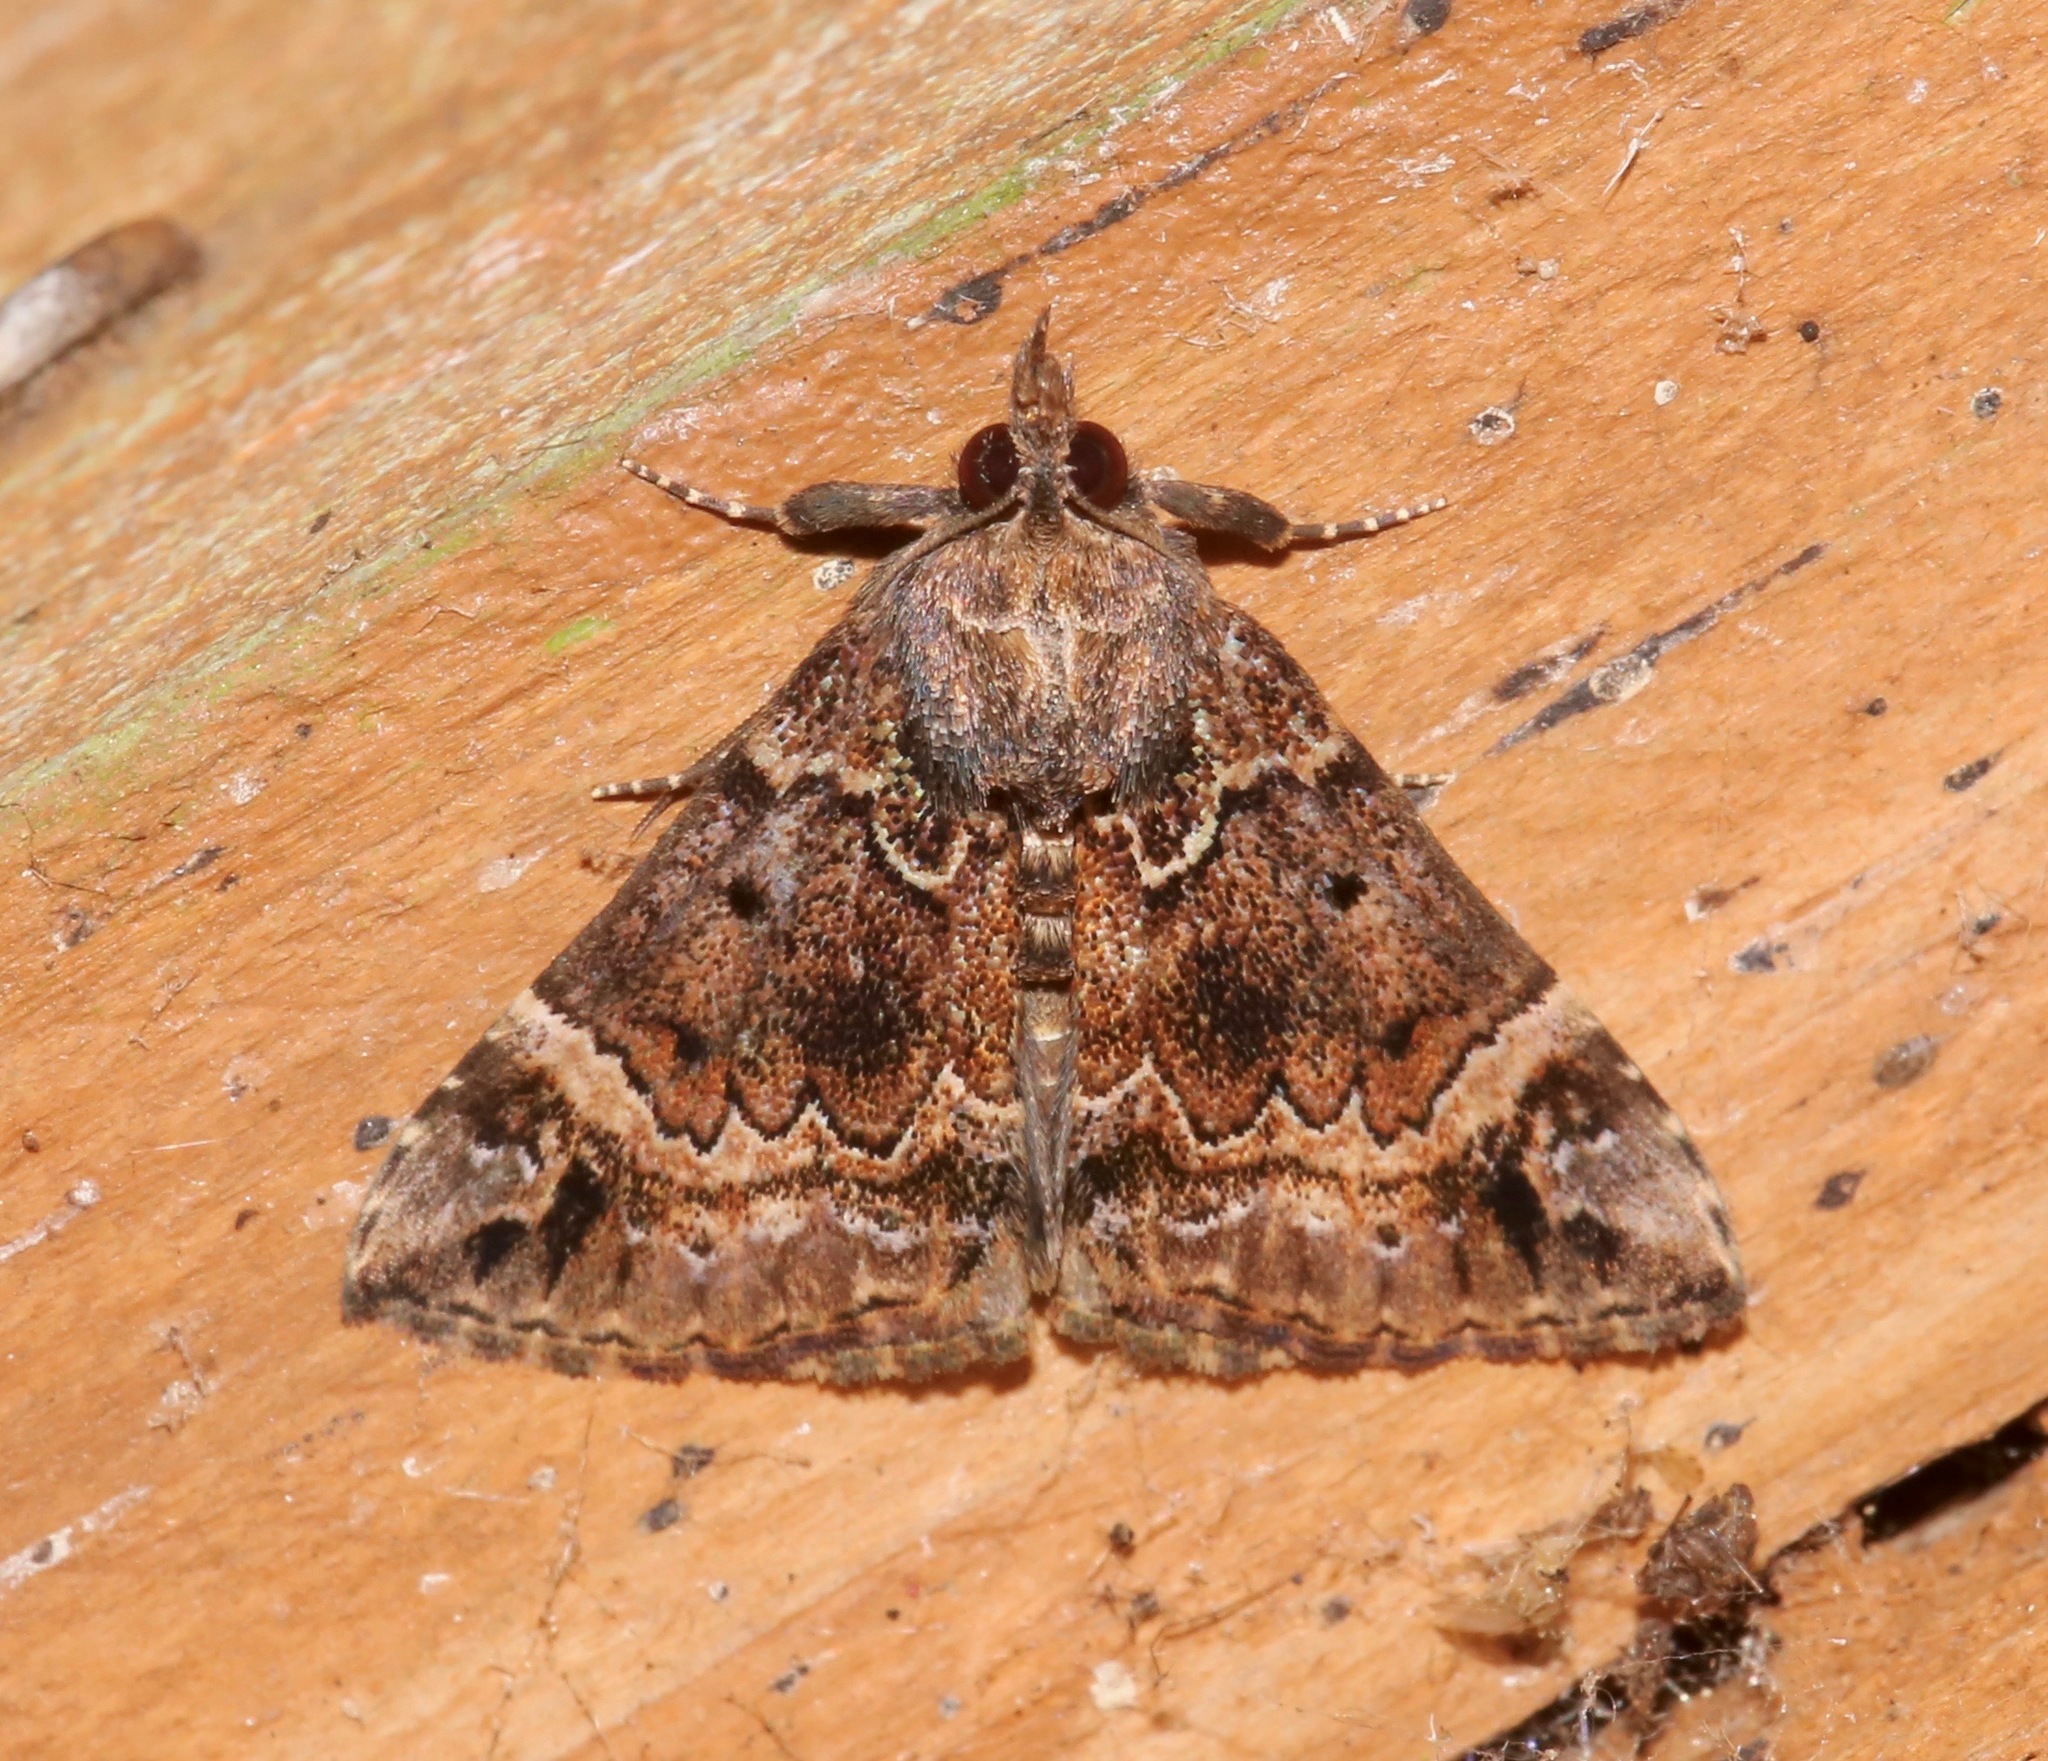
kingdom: Animalia
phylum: Arthropoda
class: Insecta
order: Lepidoptera
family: Erebidae
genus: Hypena
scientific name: Hypena palparia
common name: Mottled bomolocha moth
